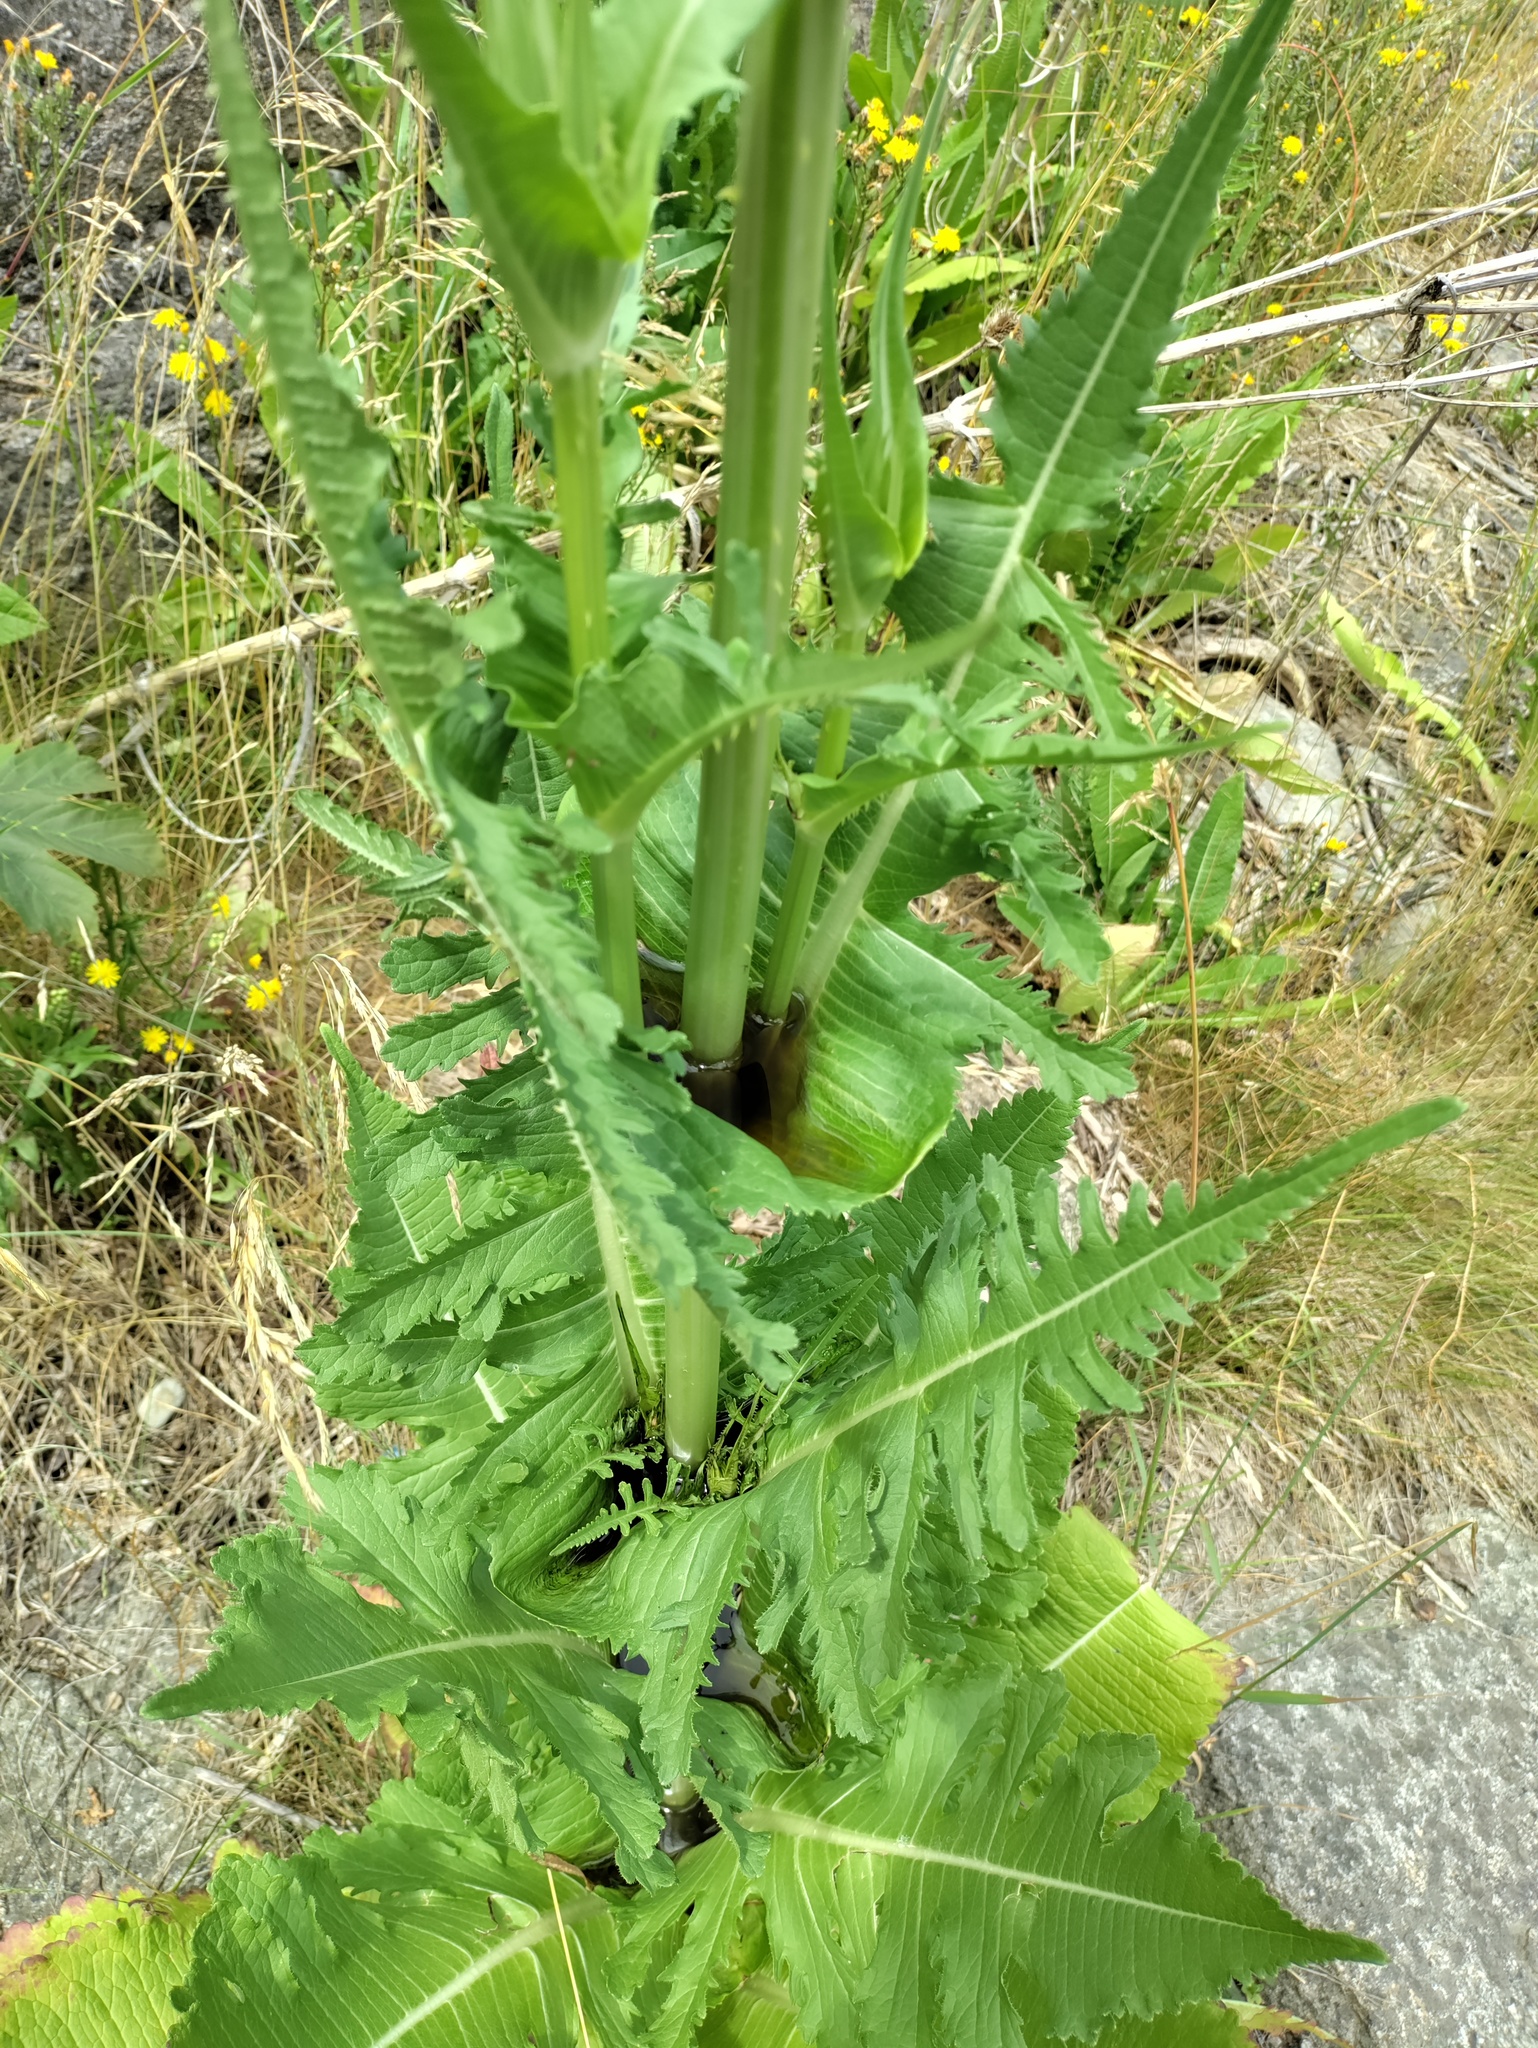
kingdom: Plantae
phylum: Tracheophyta
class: Magnoliopsida
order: Dipsacales
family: Caprifoliaceae
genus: Dipsacus
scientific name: Dipsacus laciniatus
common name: Cut-leaved teasel
